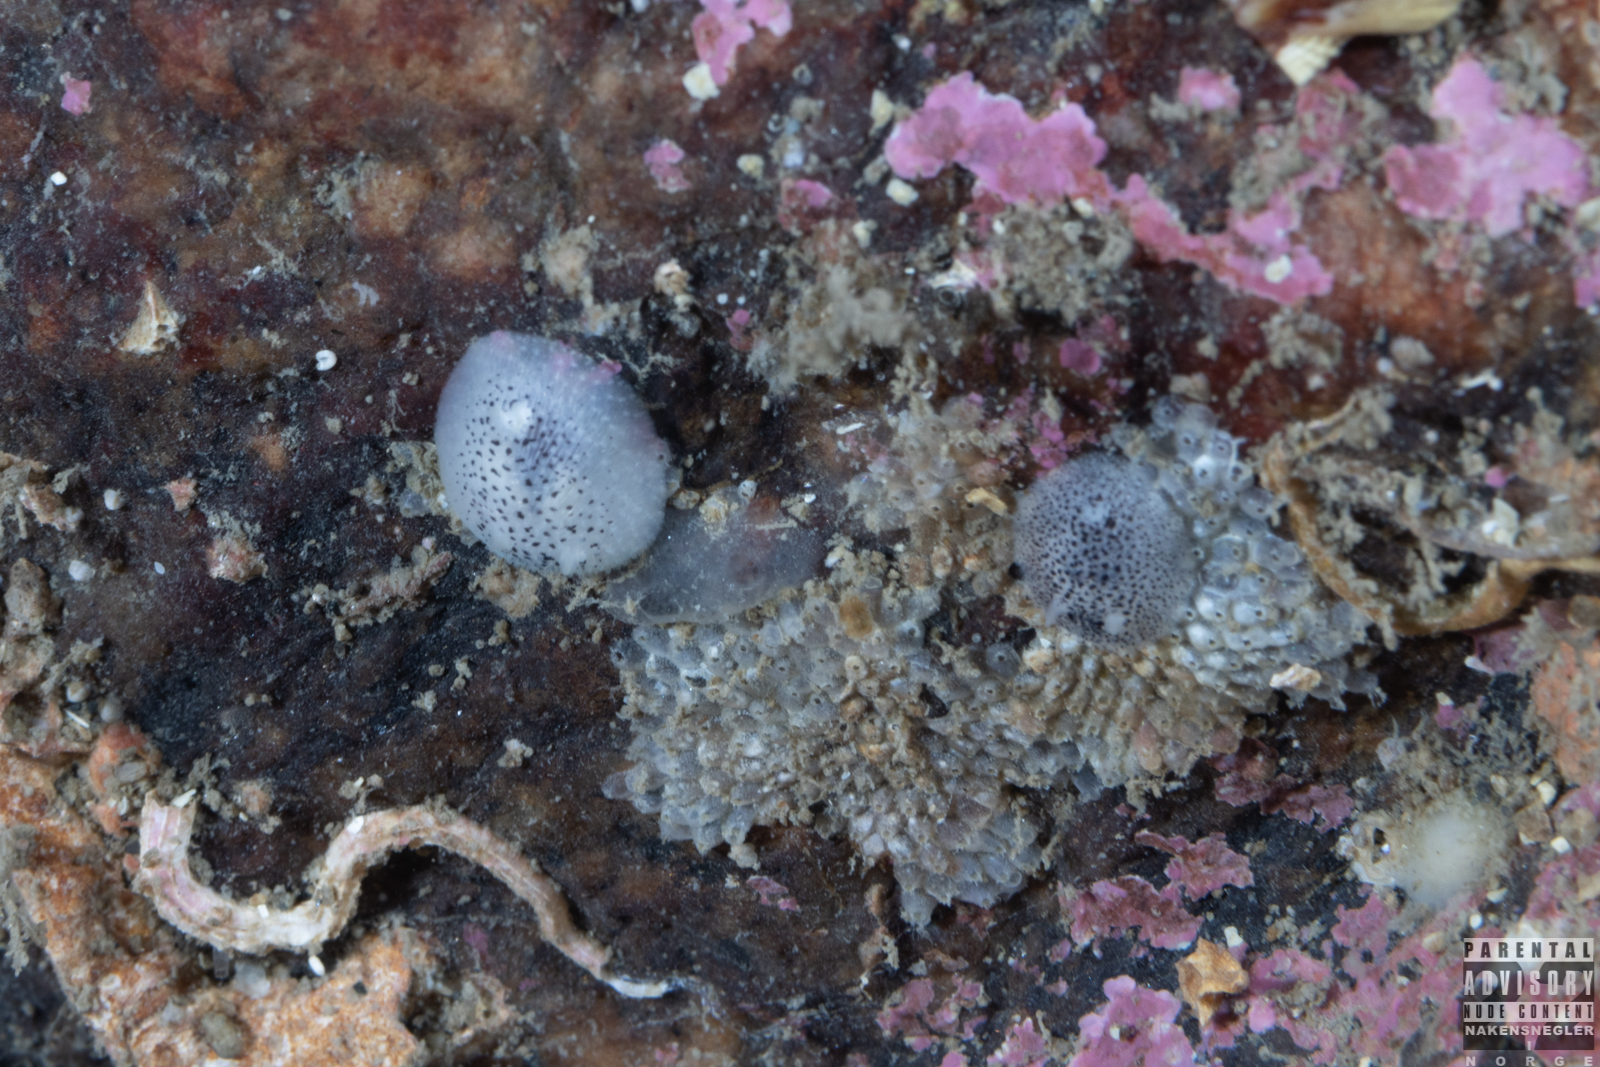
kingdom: Animalia
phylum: Mollusca
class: Gastropoda
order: Nudibranchia
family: Onchidorididae
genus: Atalodoris
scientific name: Atalodoris pusilla
